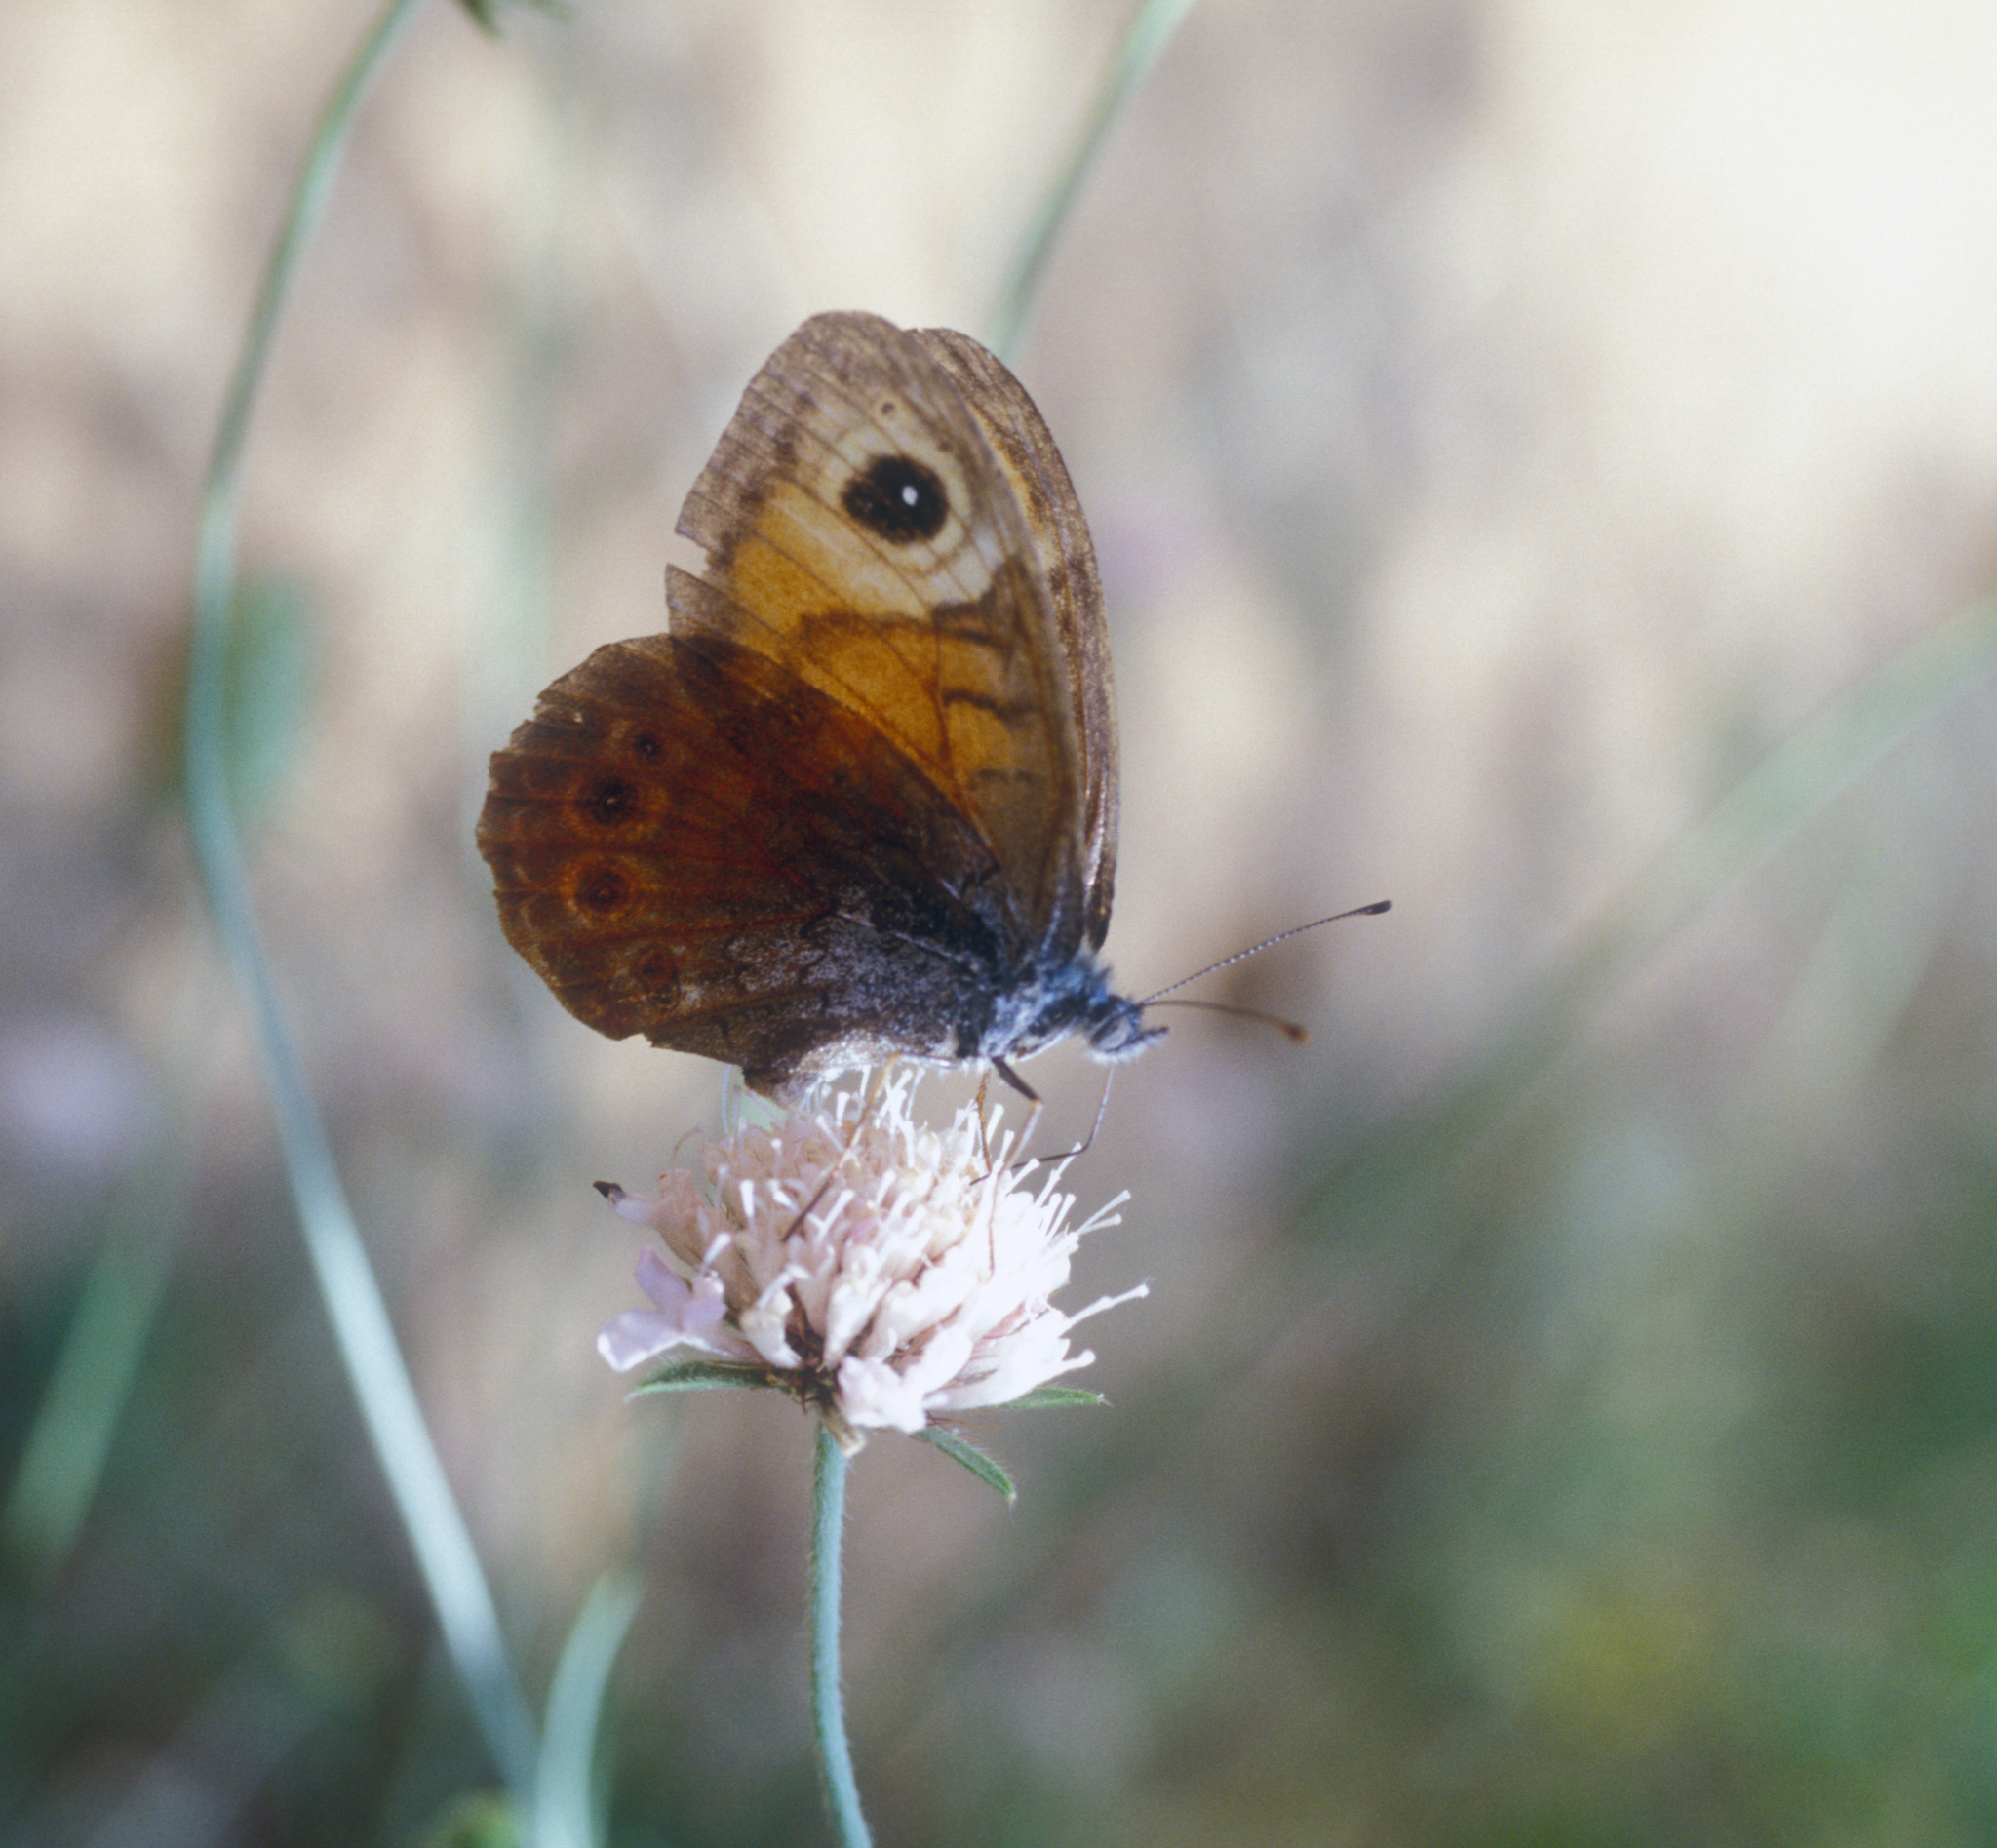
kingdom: Animalia
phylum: Arthropoda
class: Insecta
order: Lepidoptera
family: Nymphalidae
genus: Pararge
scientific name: Pararge Lasiommata maera
